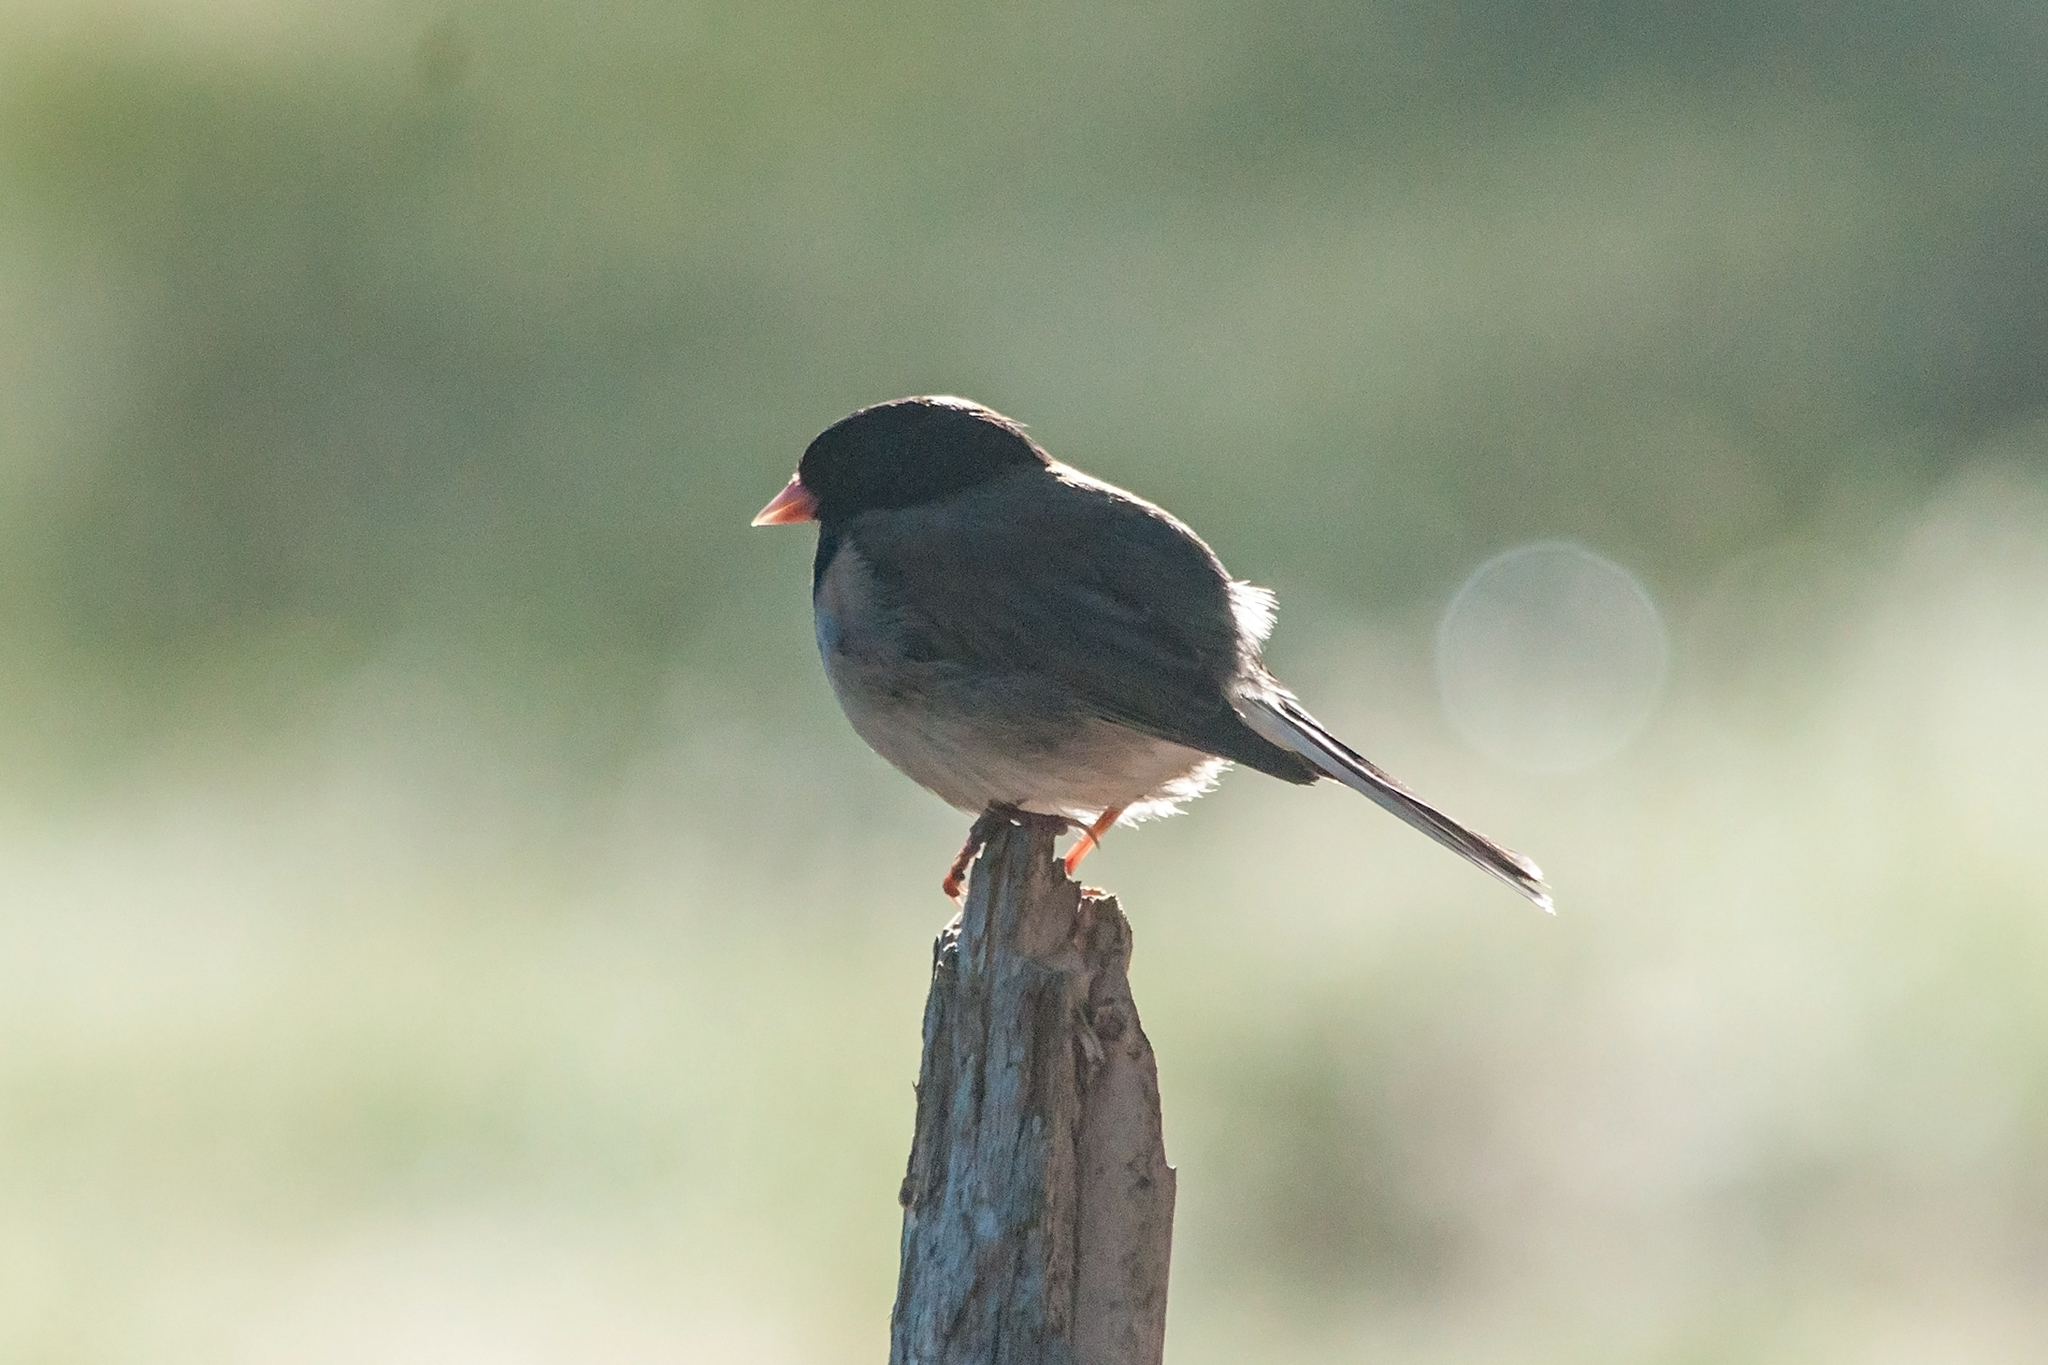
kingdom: Animalia
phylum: Chordata
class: Aves
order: Passeriformes
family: Passerellidae
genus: Junco
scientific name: Junco hyemalis
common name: Dark-eyed junco
